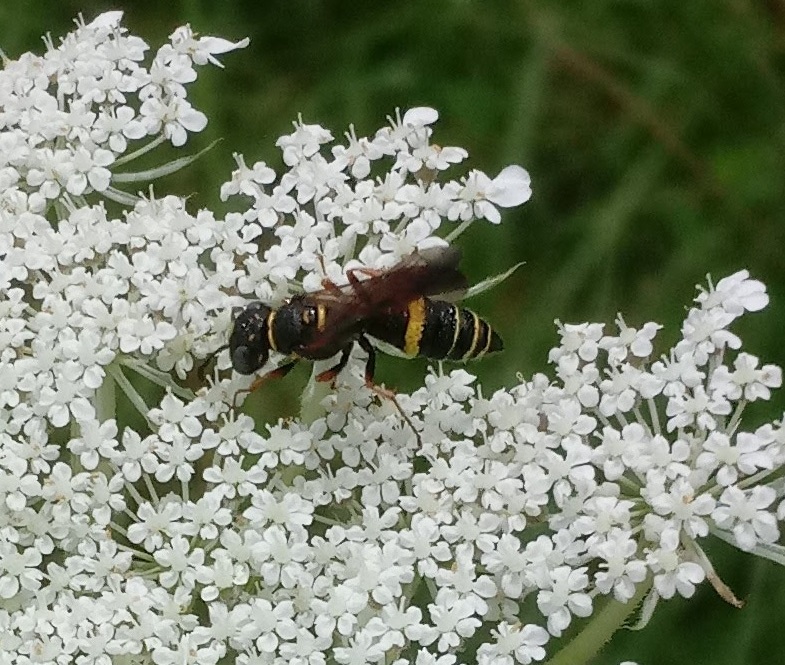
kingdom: Animalia
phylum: Arthropoda
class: Insecta
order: Hymenoptera
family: Crabronidae
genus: Philanthus
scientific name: Philanthus gibbosus
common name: Humped beewolf
